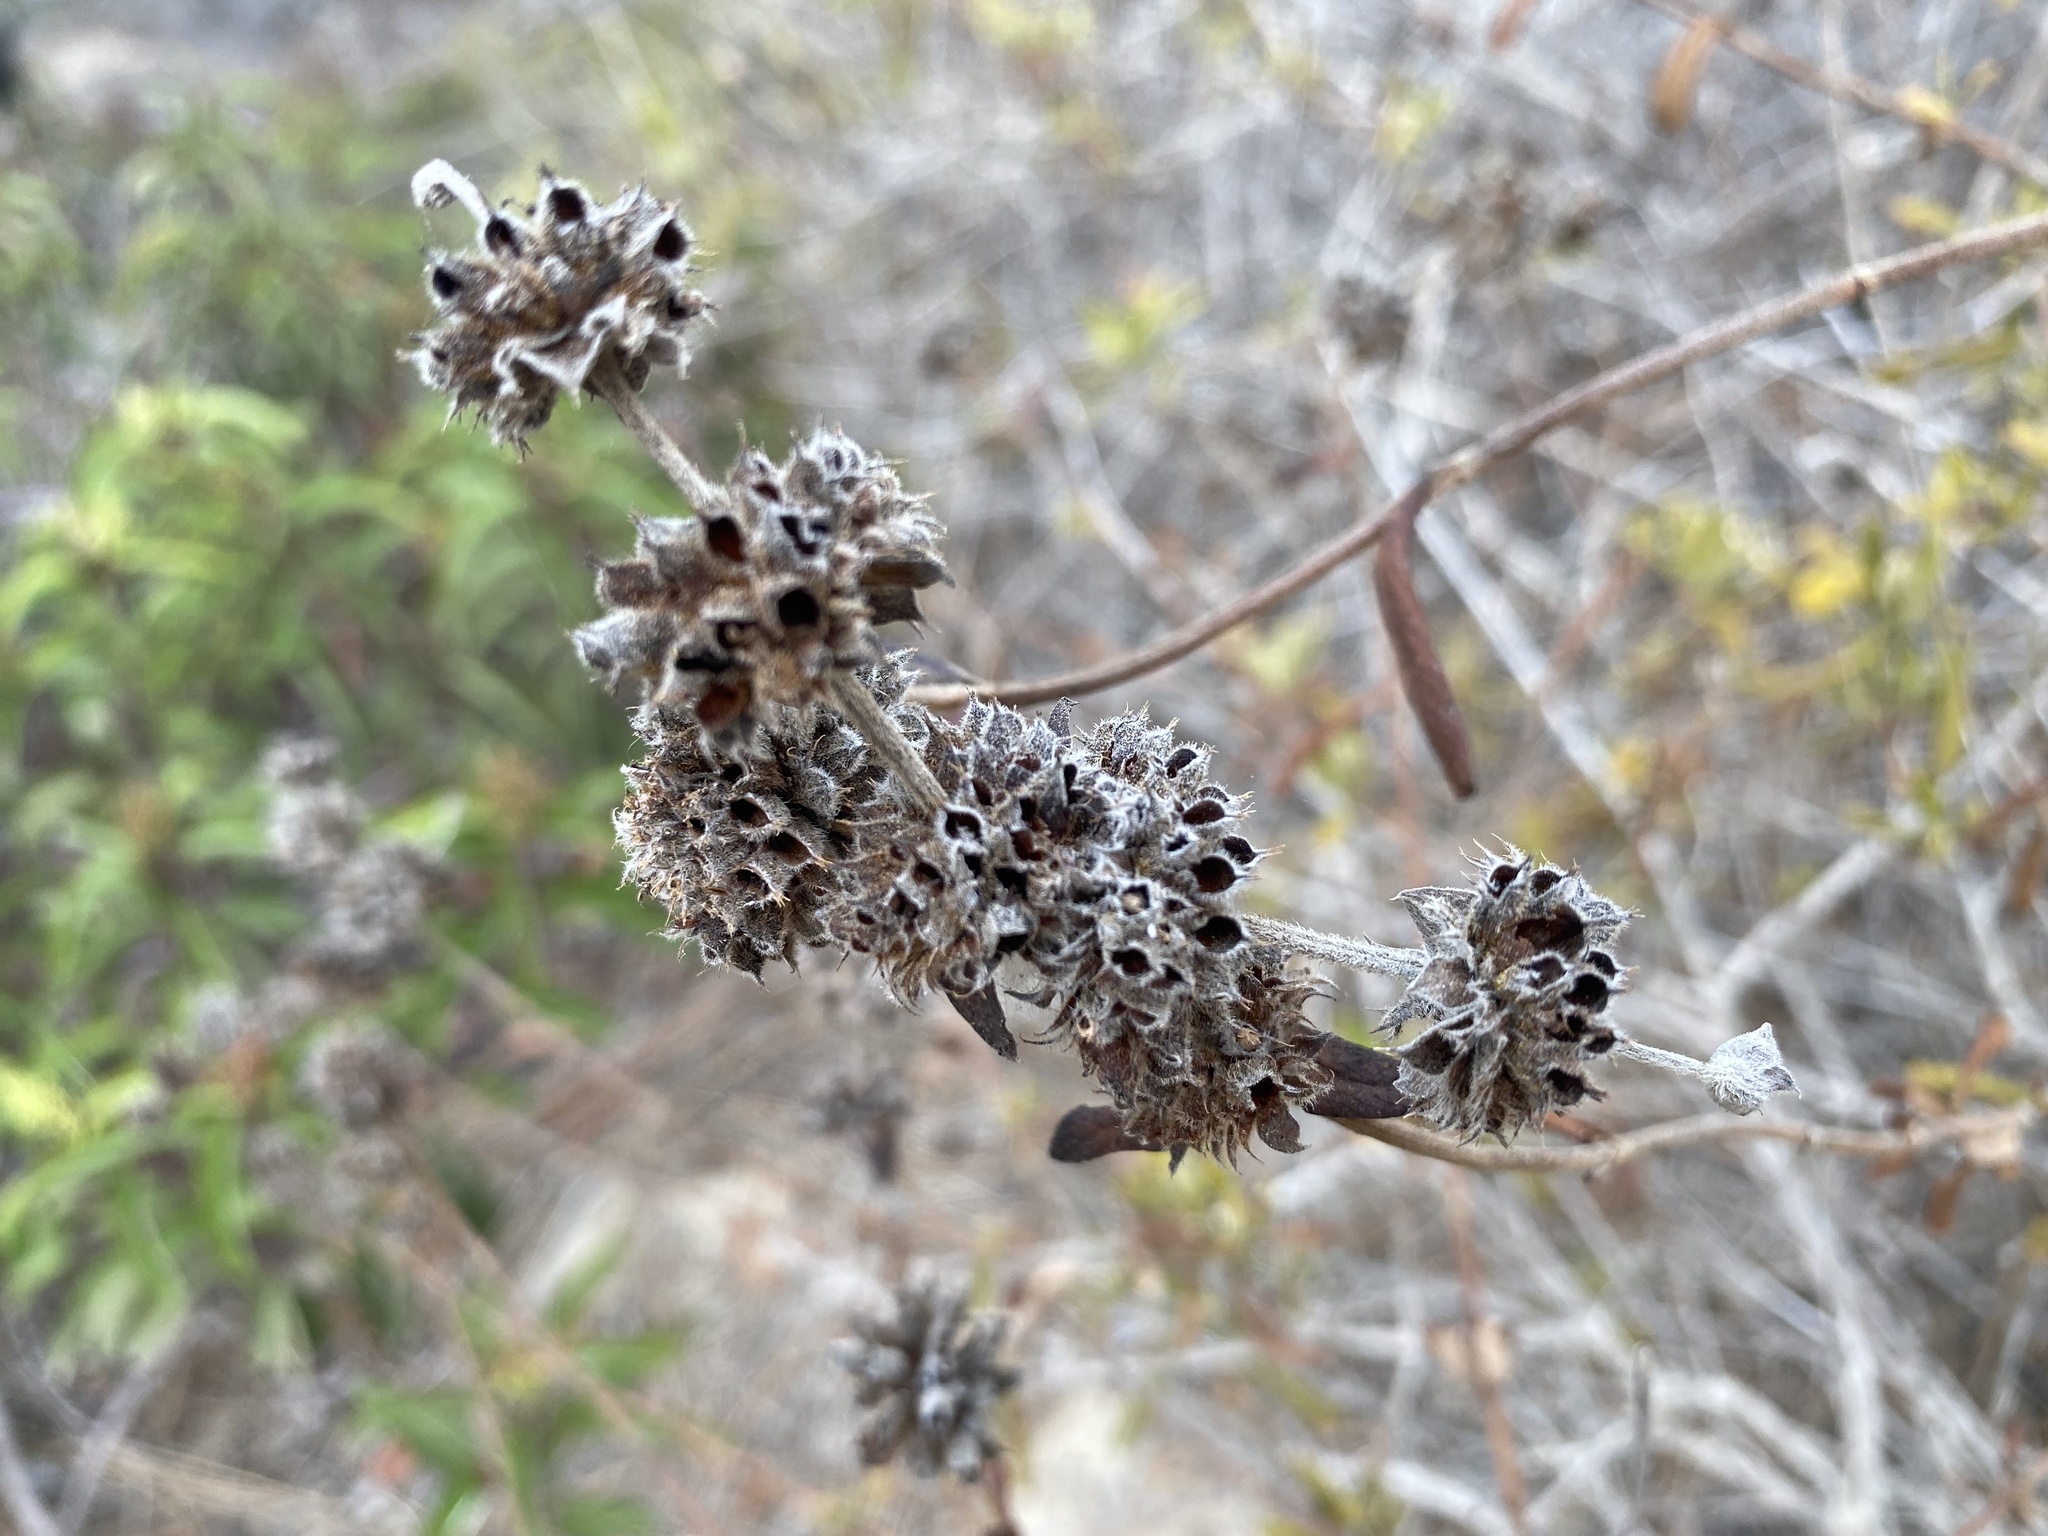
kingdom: Plantae
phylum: Tracheophyta
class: Magnoliopsida
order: Lamiales
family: Lamiaceae
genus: Salvia
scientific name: Salvia mellifera
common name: Black sage
